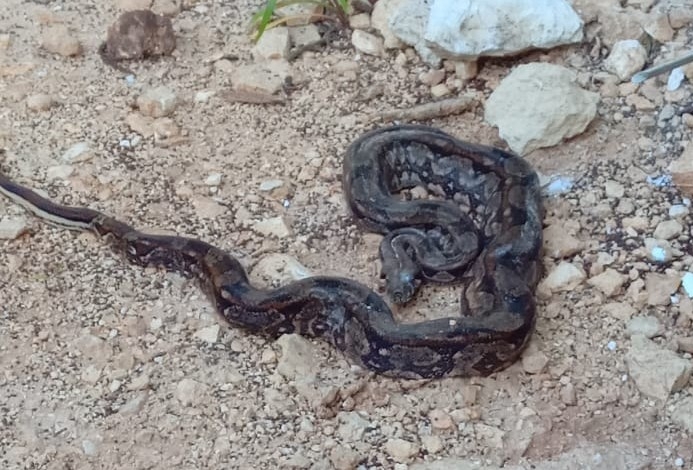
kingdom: Animalia
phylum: Chordata
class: Squamata
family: Boidae
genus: Boa
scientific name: Boa imperator
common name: Central american boa
